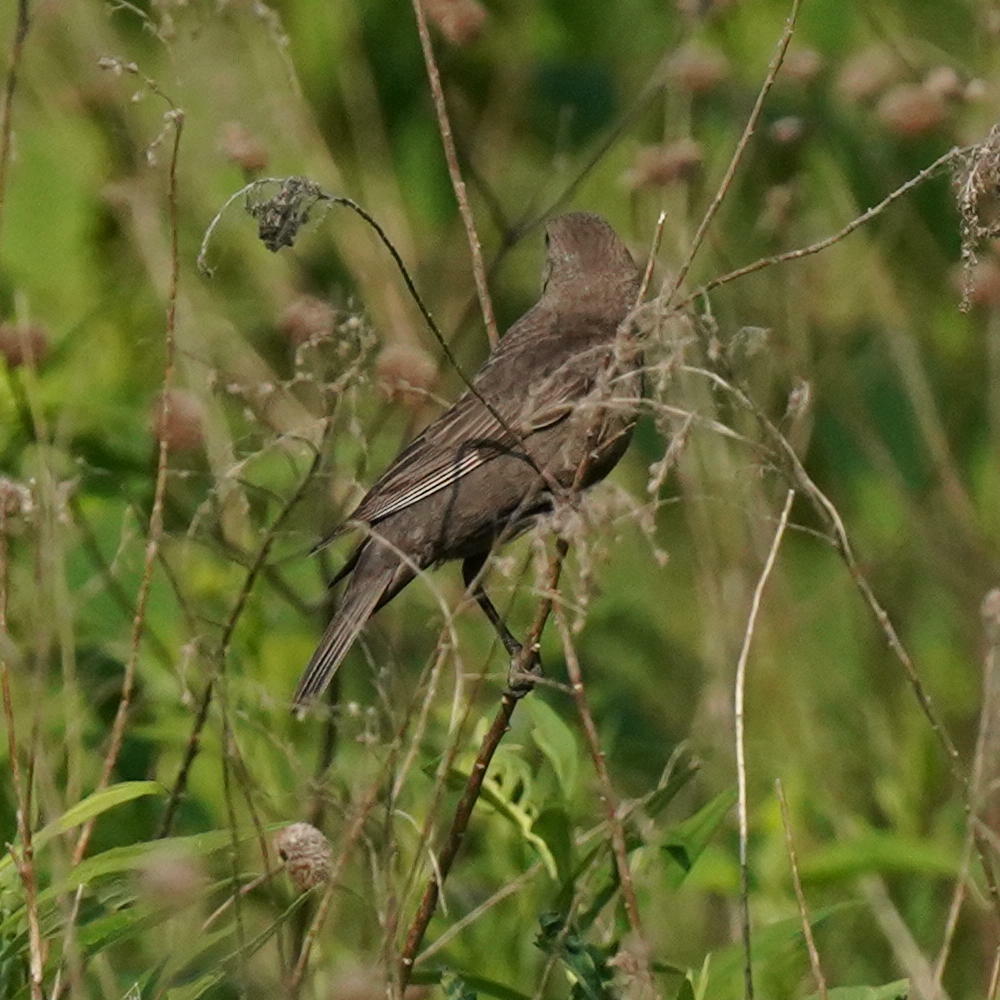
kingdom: Animalia
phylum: Chordata
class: Aves
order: Passeriformes
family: Icteridae
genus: Molothrus
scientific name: Molothrus ater
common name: Brown-headed cowbird
